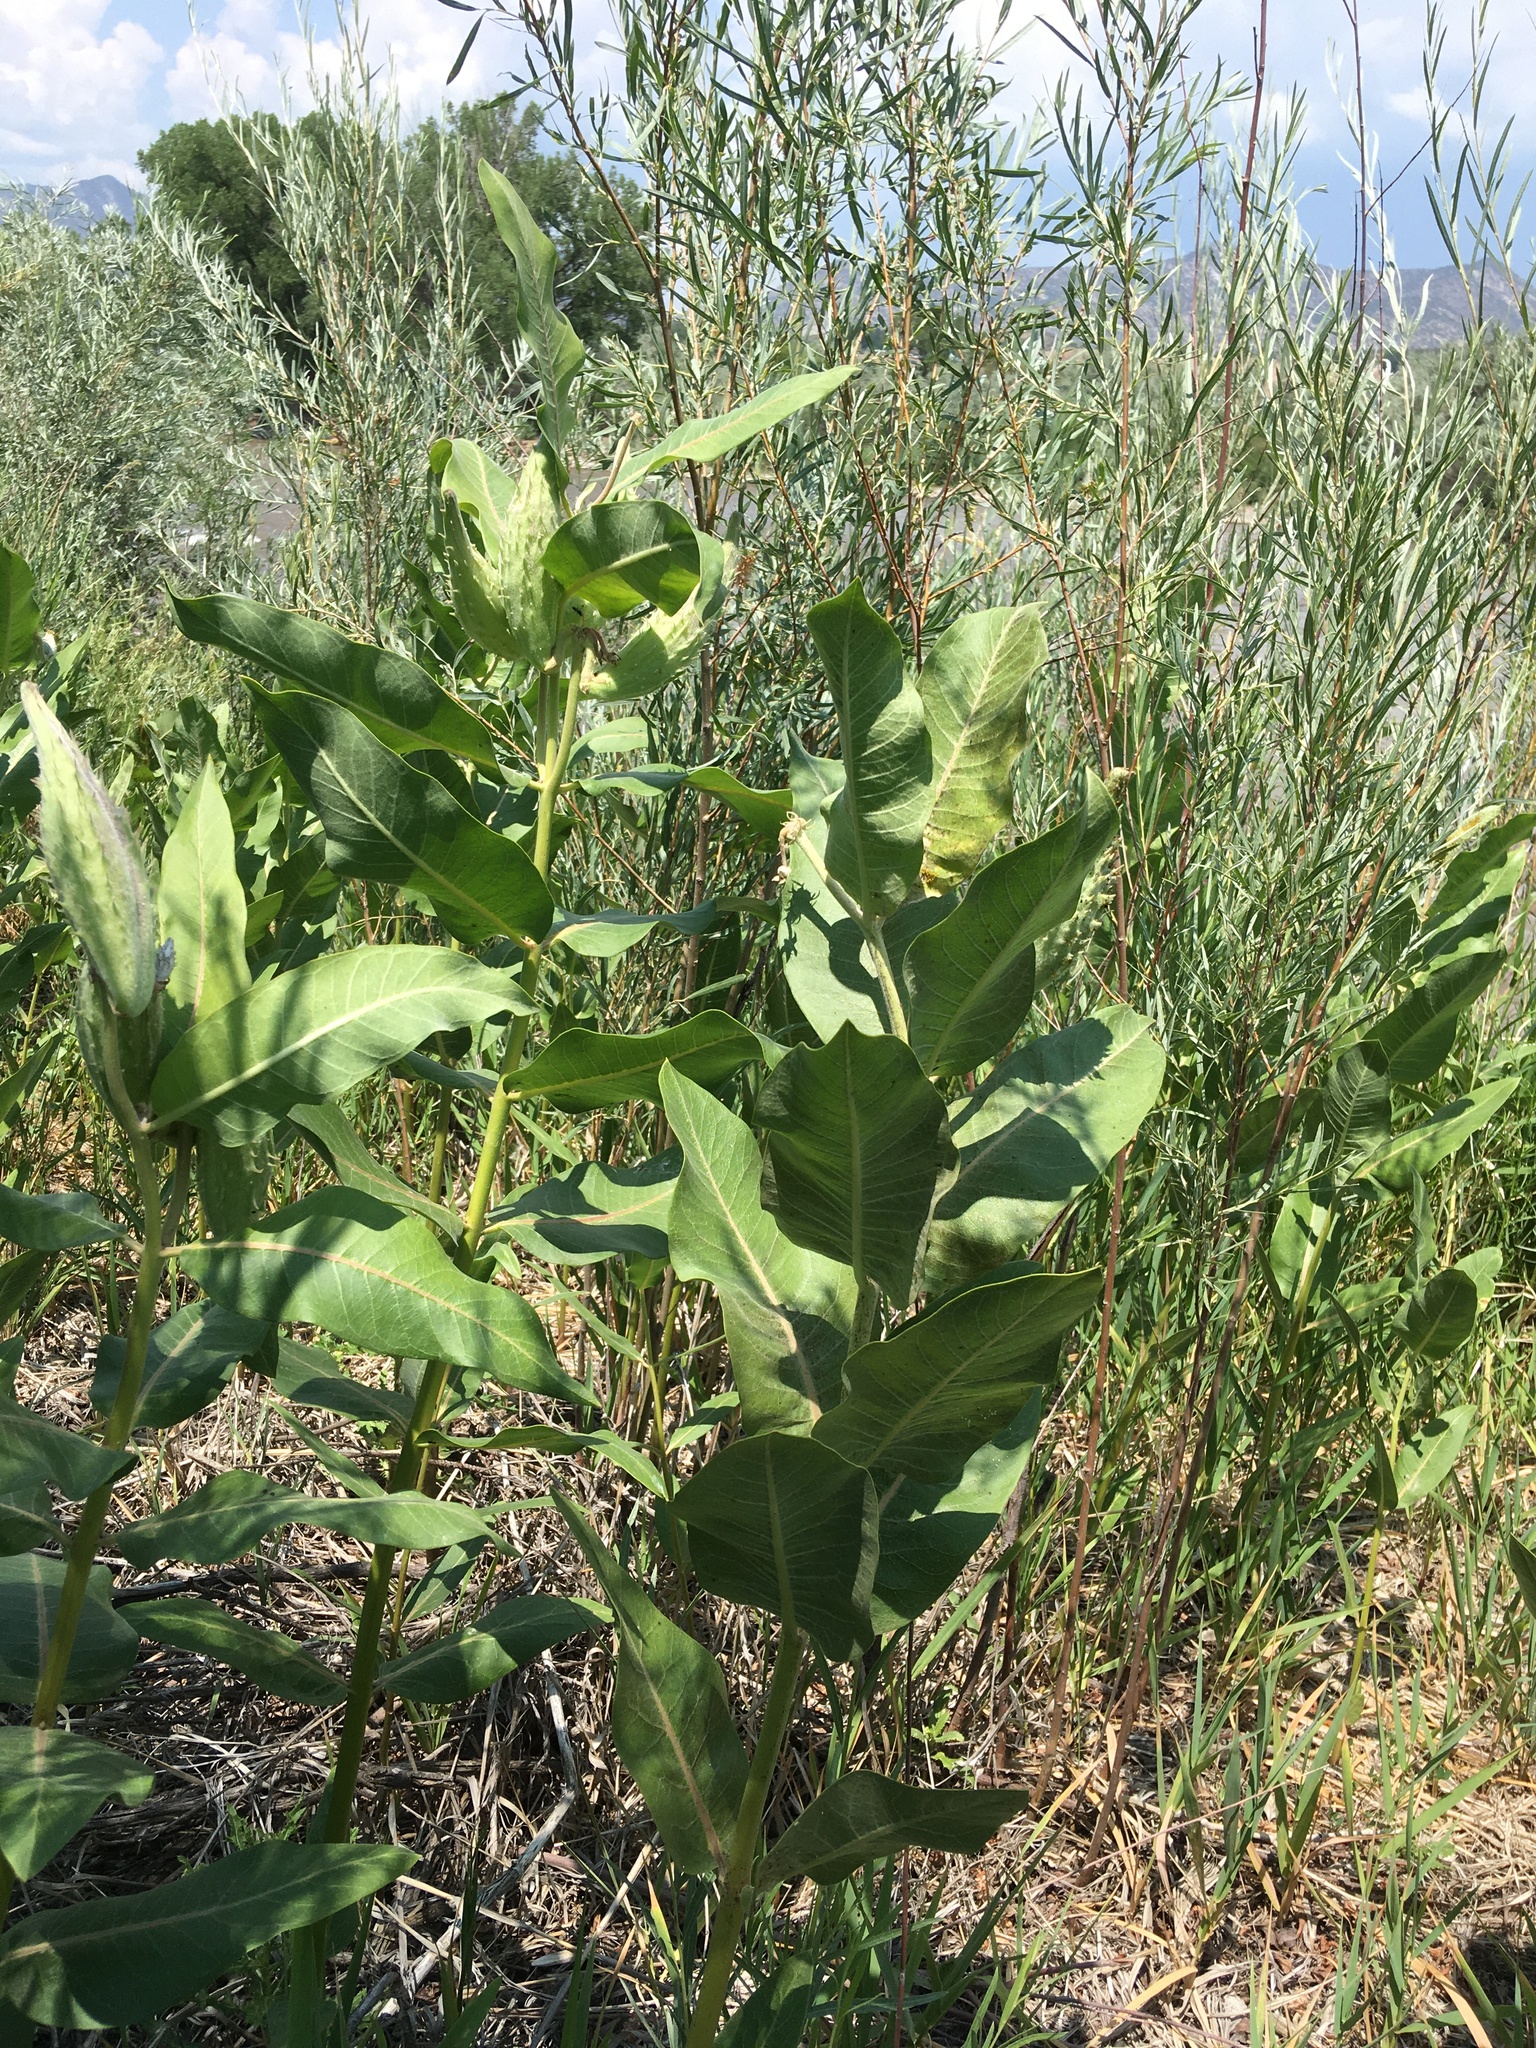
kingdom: Plantae
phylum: Tracheophyta
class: Magnoliopsida
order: Gentianales
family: Apocynaceae
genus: Asclepias
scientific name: Asclepias speciosa
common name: Showy milkweed
